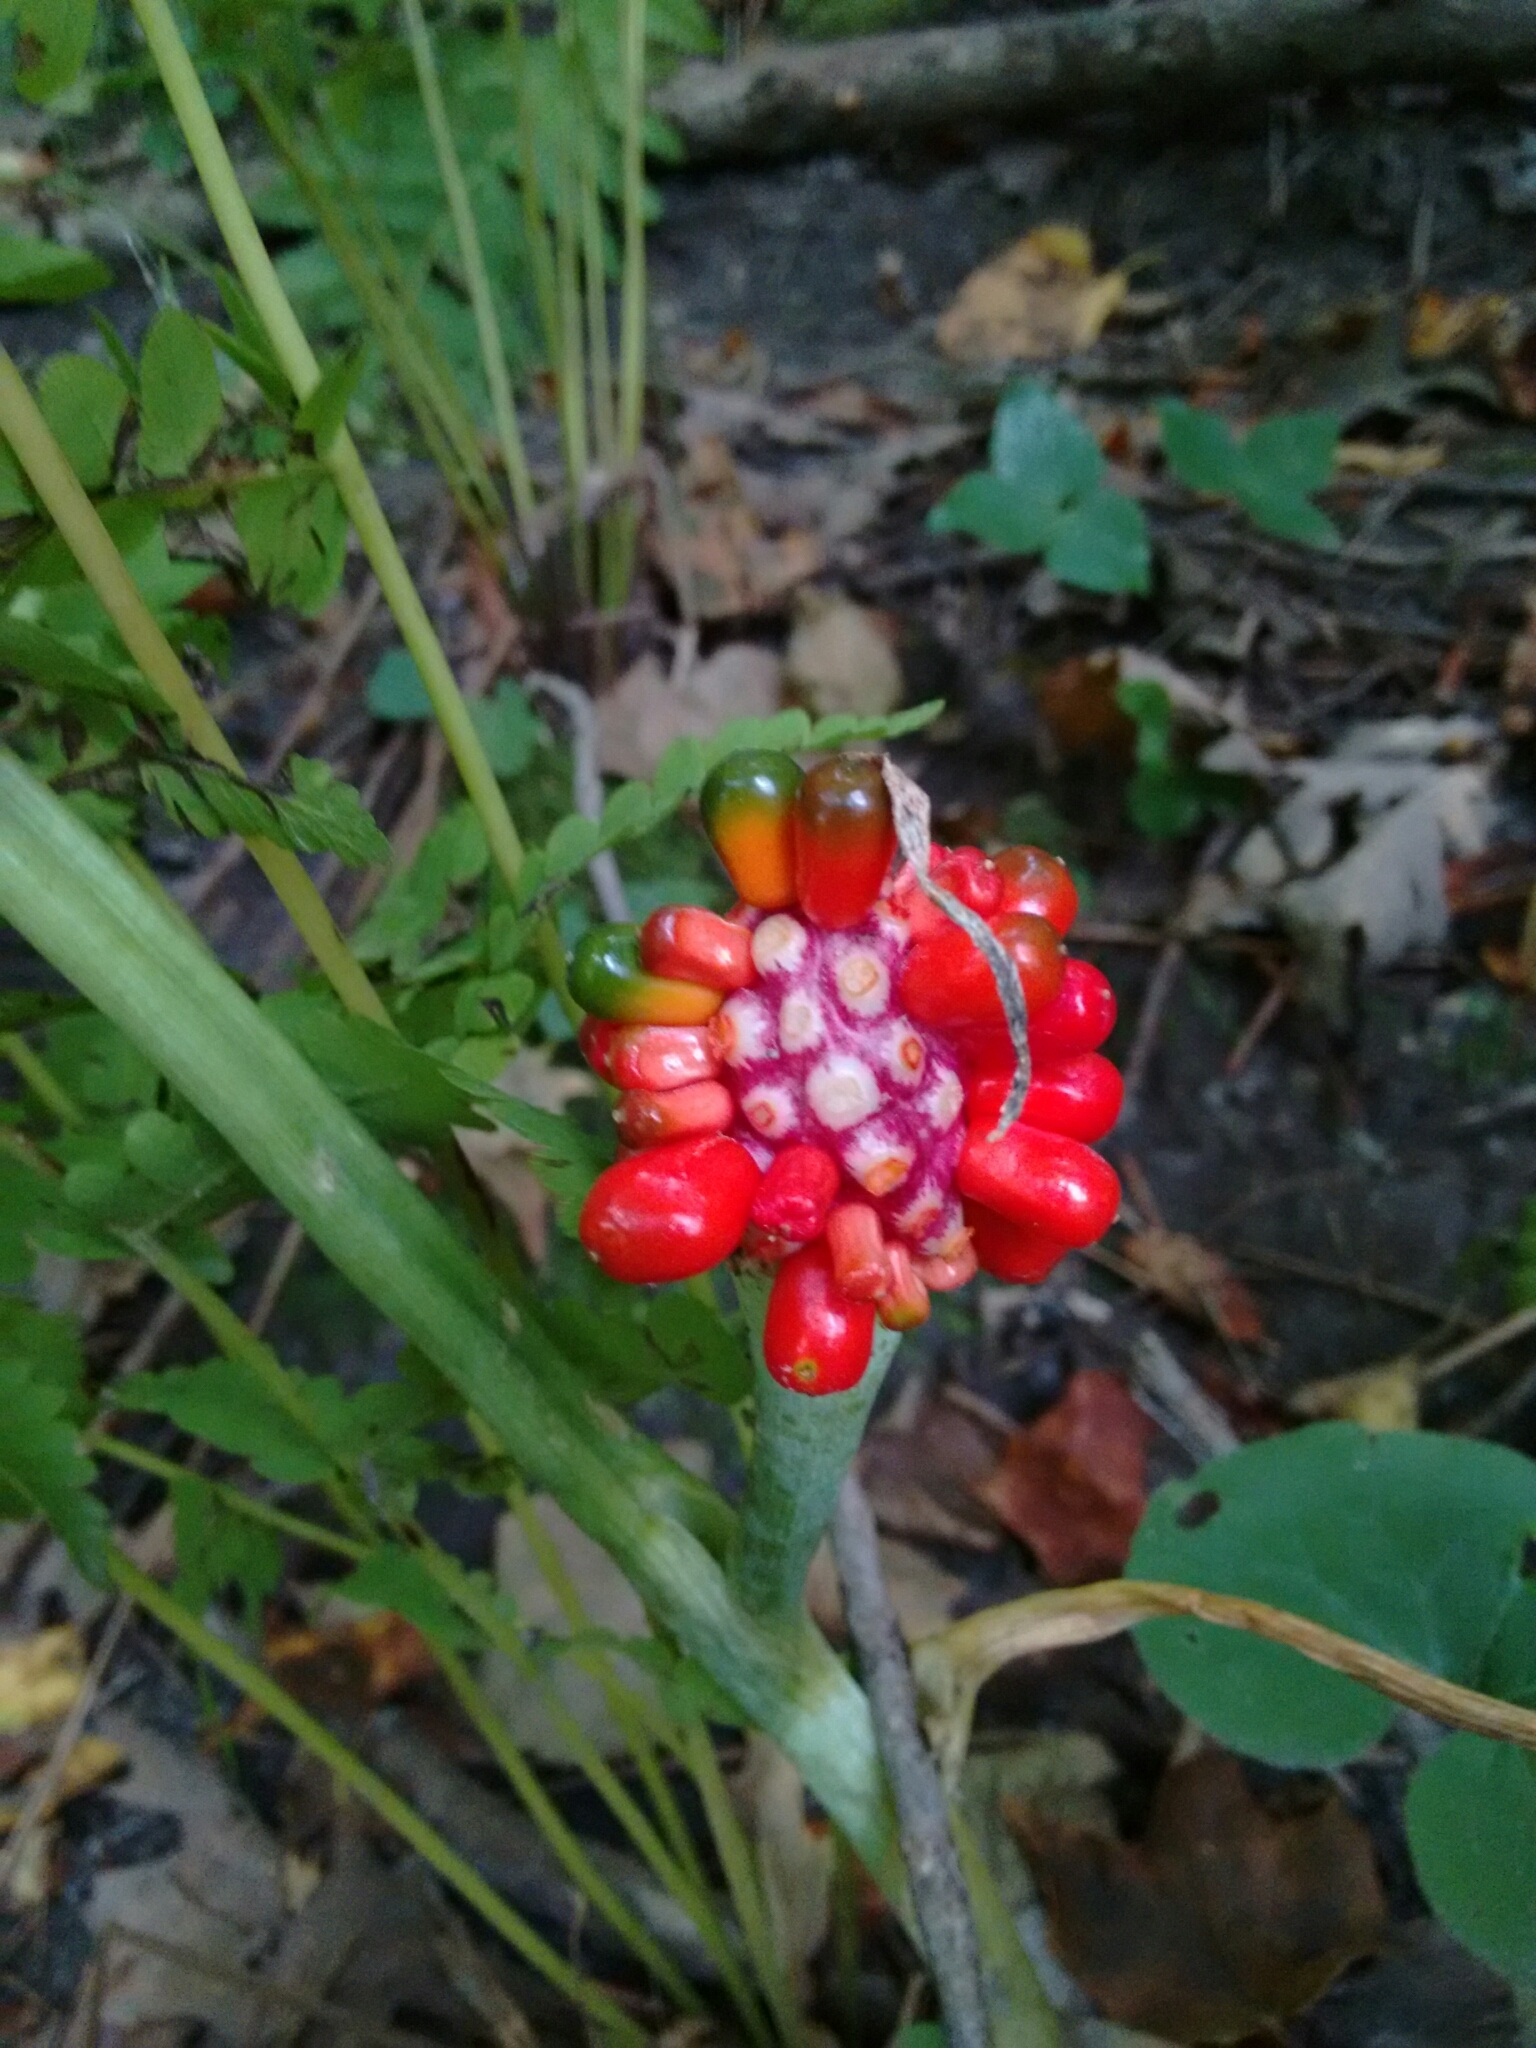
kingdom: Plantae
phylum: Tracheophyta
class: Liliopsida
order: Alismatales
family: Araceae
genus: Arisaema
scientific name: Arisaema triphyllum
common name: Jack-in-the-pulpit
